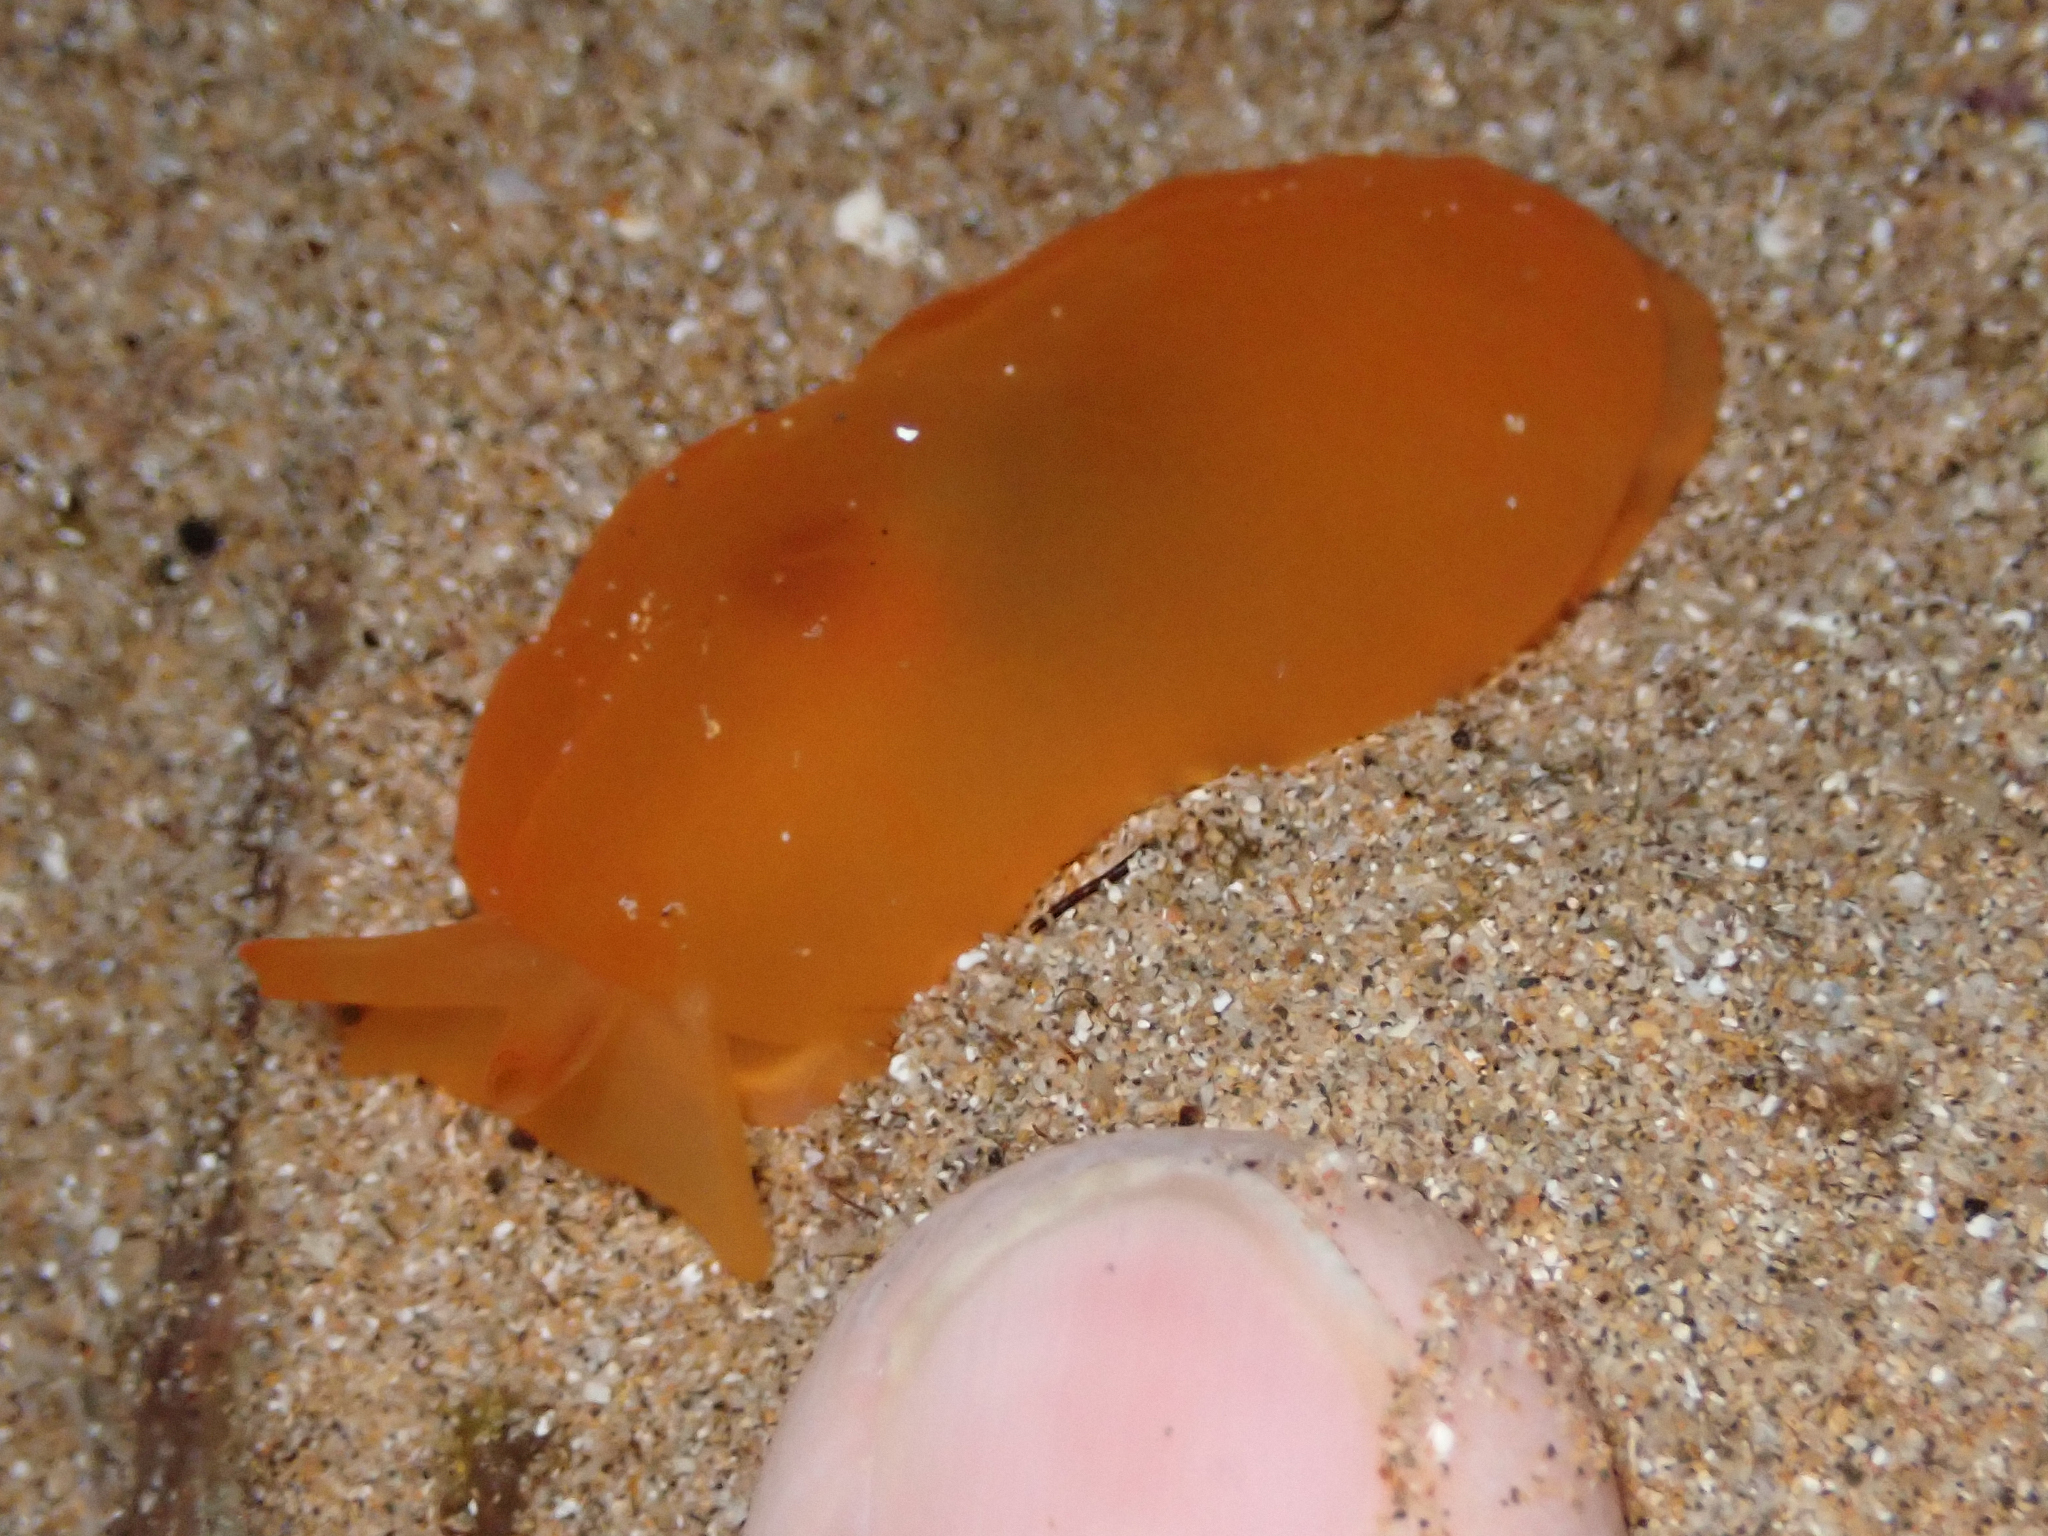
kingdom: Animalia
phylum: Mollusca
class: Gastropoda
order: Pleurobranchida
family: Pleurobranchidae
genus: Berthellina
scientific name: Berthellina delicata
